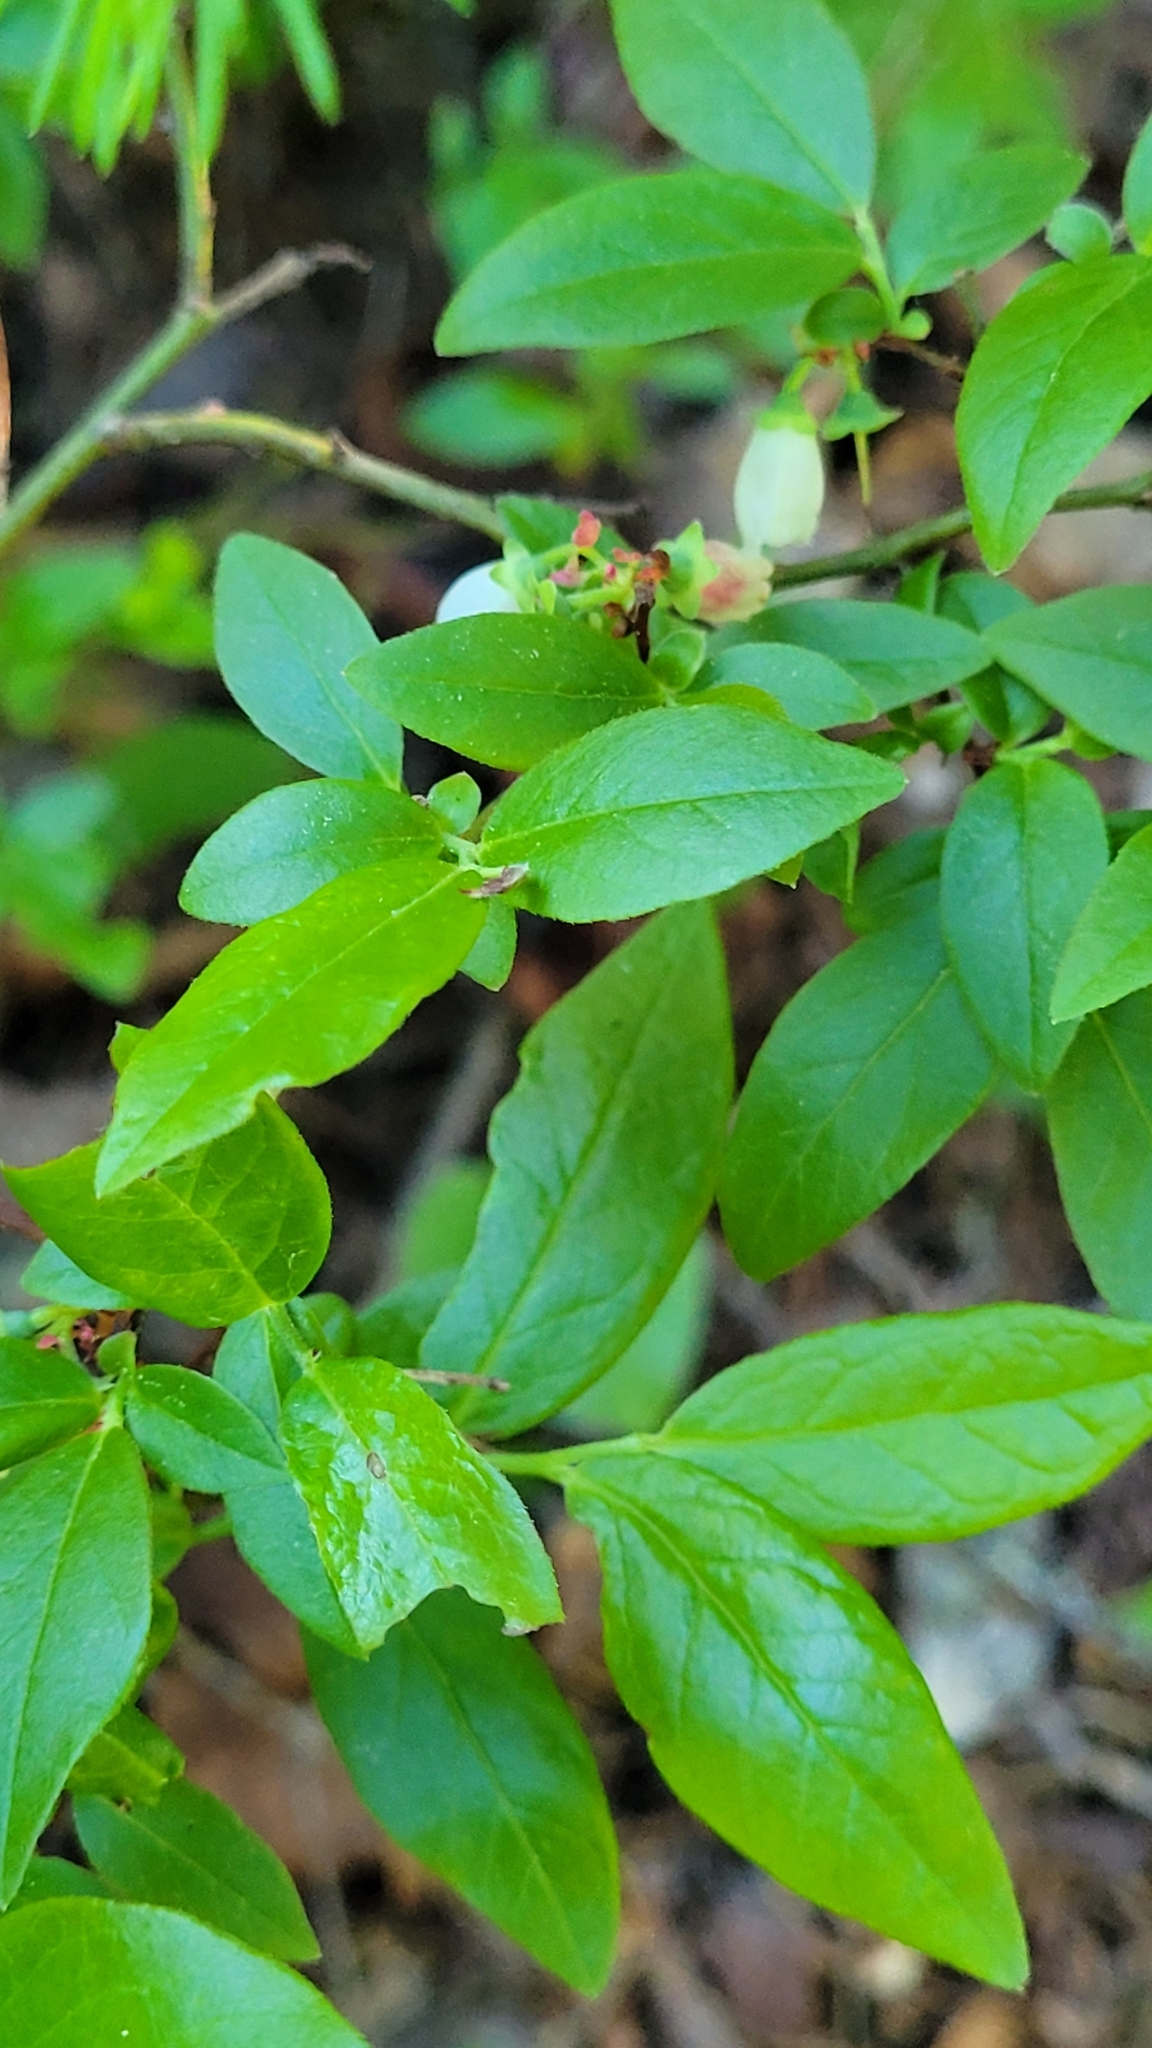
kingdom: Plantae
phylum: Tracheophyta
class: Magnoliopsida
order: Ericales
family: Ericaceae
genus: Vaccinium
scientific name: Vaccinium angustifolium
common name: Early lowbush blueberry
